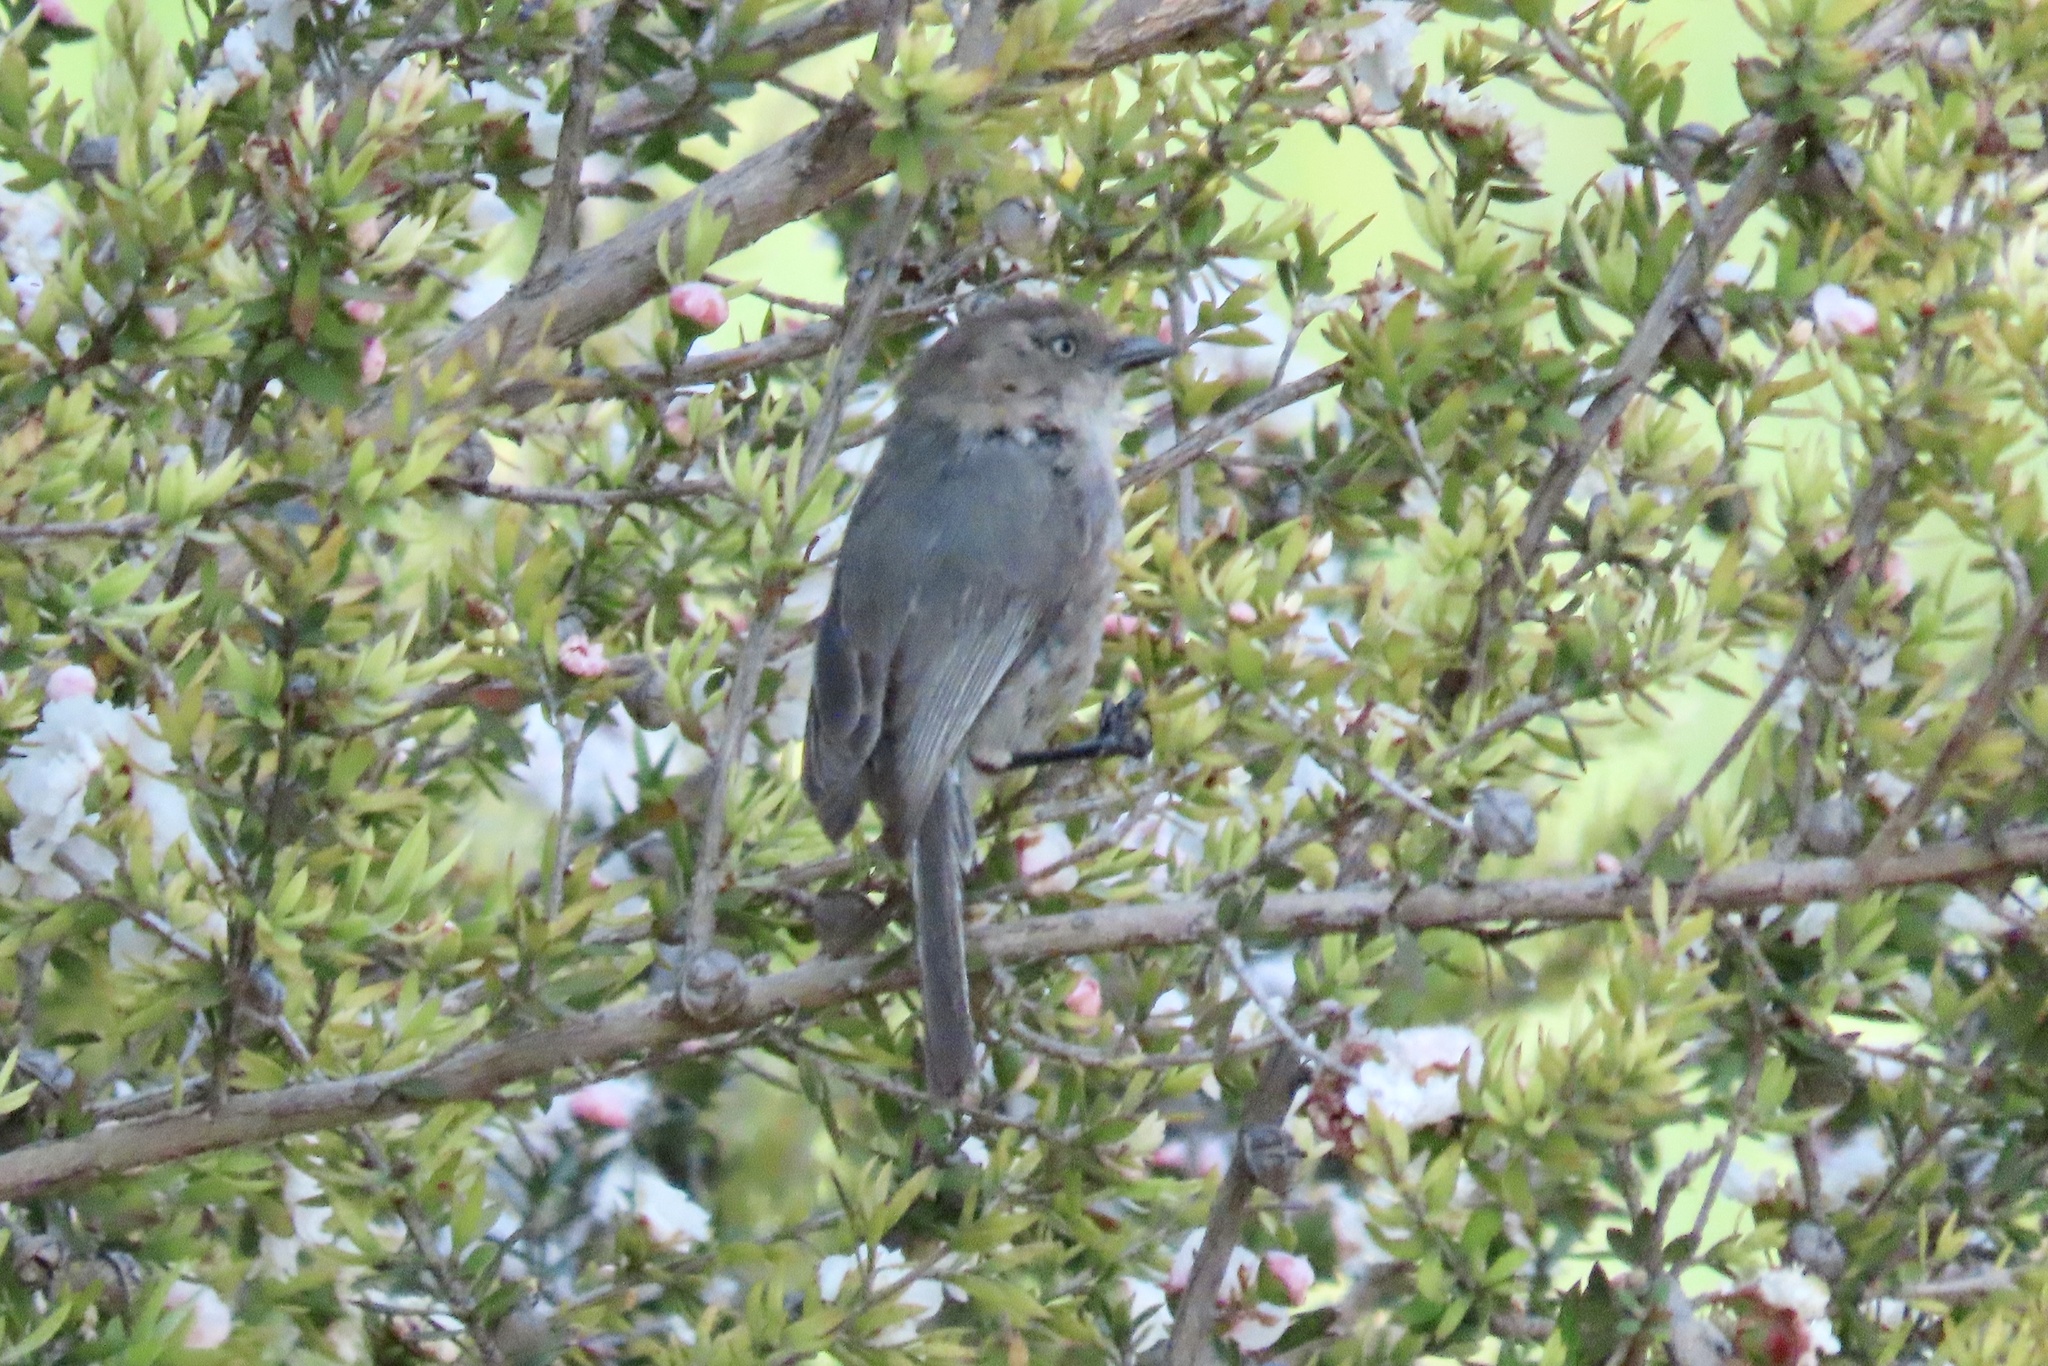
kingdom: Animalia
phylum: Chordata
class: Aves
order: Passeriformes
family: Aegithalidae
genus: Psaltriparus
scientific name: Psaltriparus minimus
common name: American bushtit
